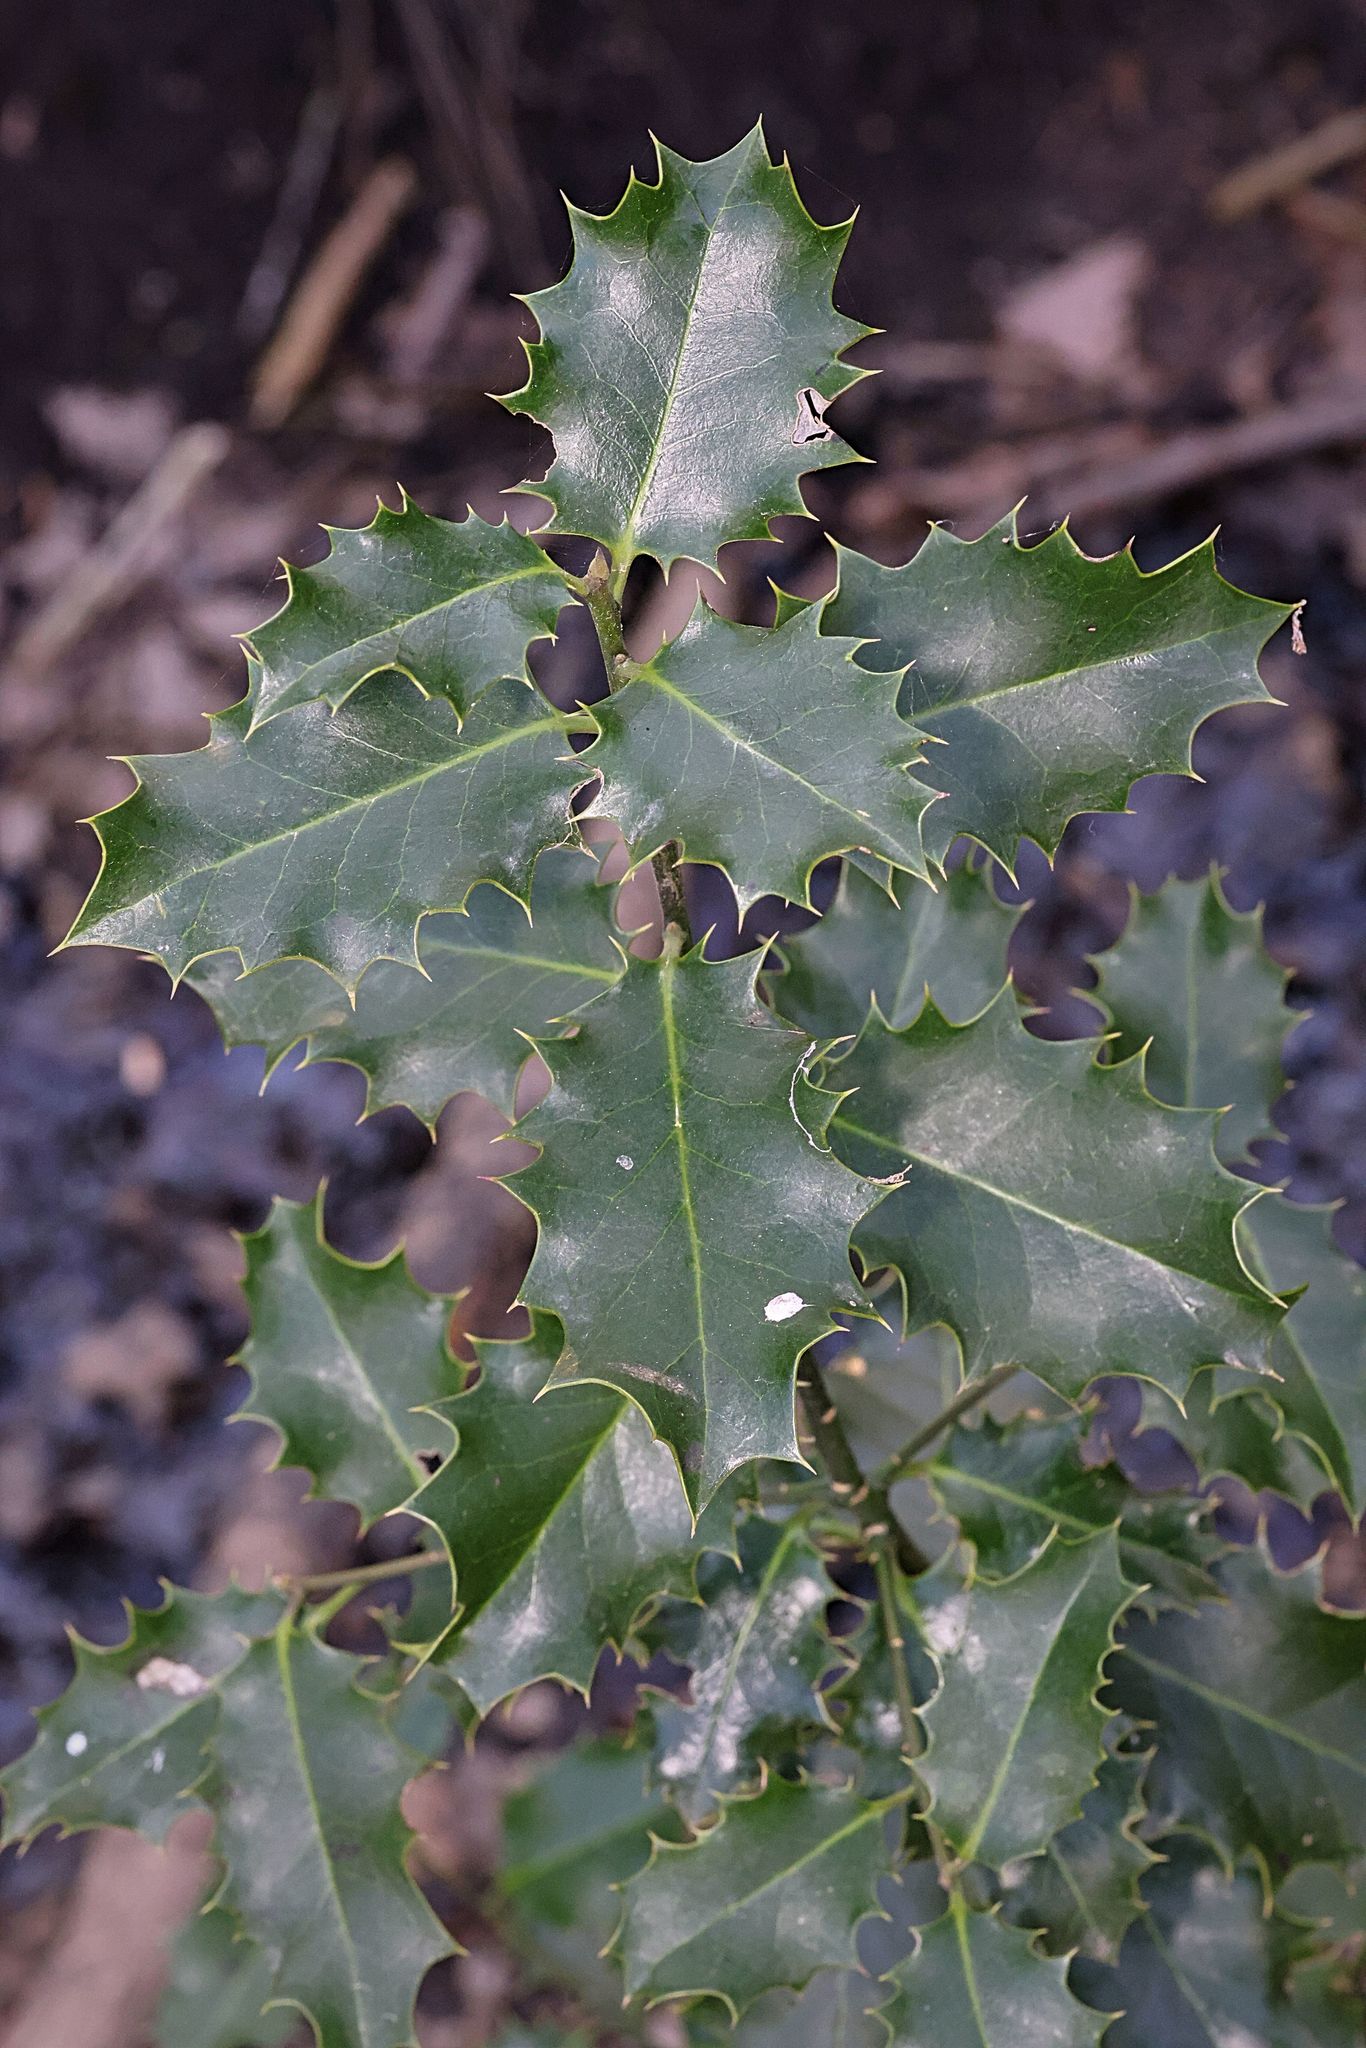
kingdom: Plantae
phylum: Tracheophyta
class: Magnoliopsida
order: Aquifoliales
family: Aquifoliaceae
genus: Ilex
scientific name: Ilex aquifolium
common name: English holly
